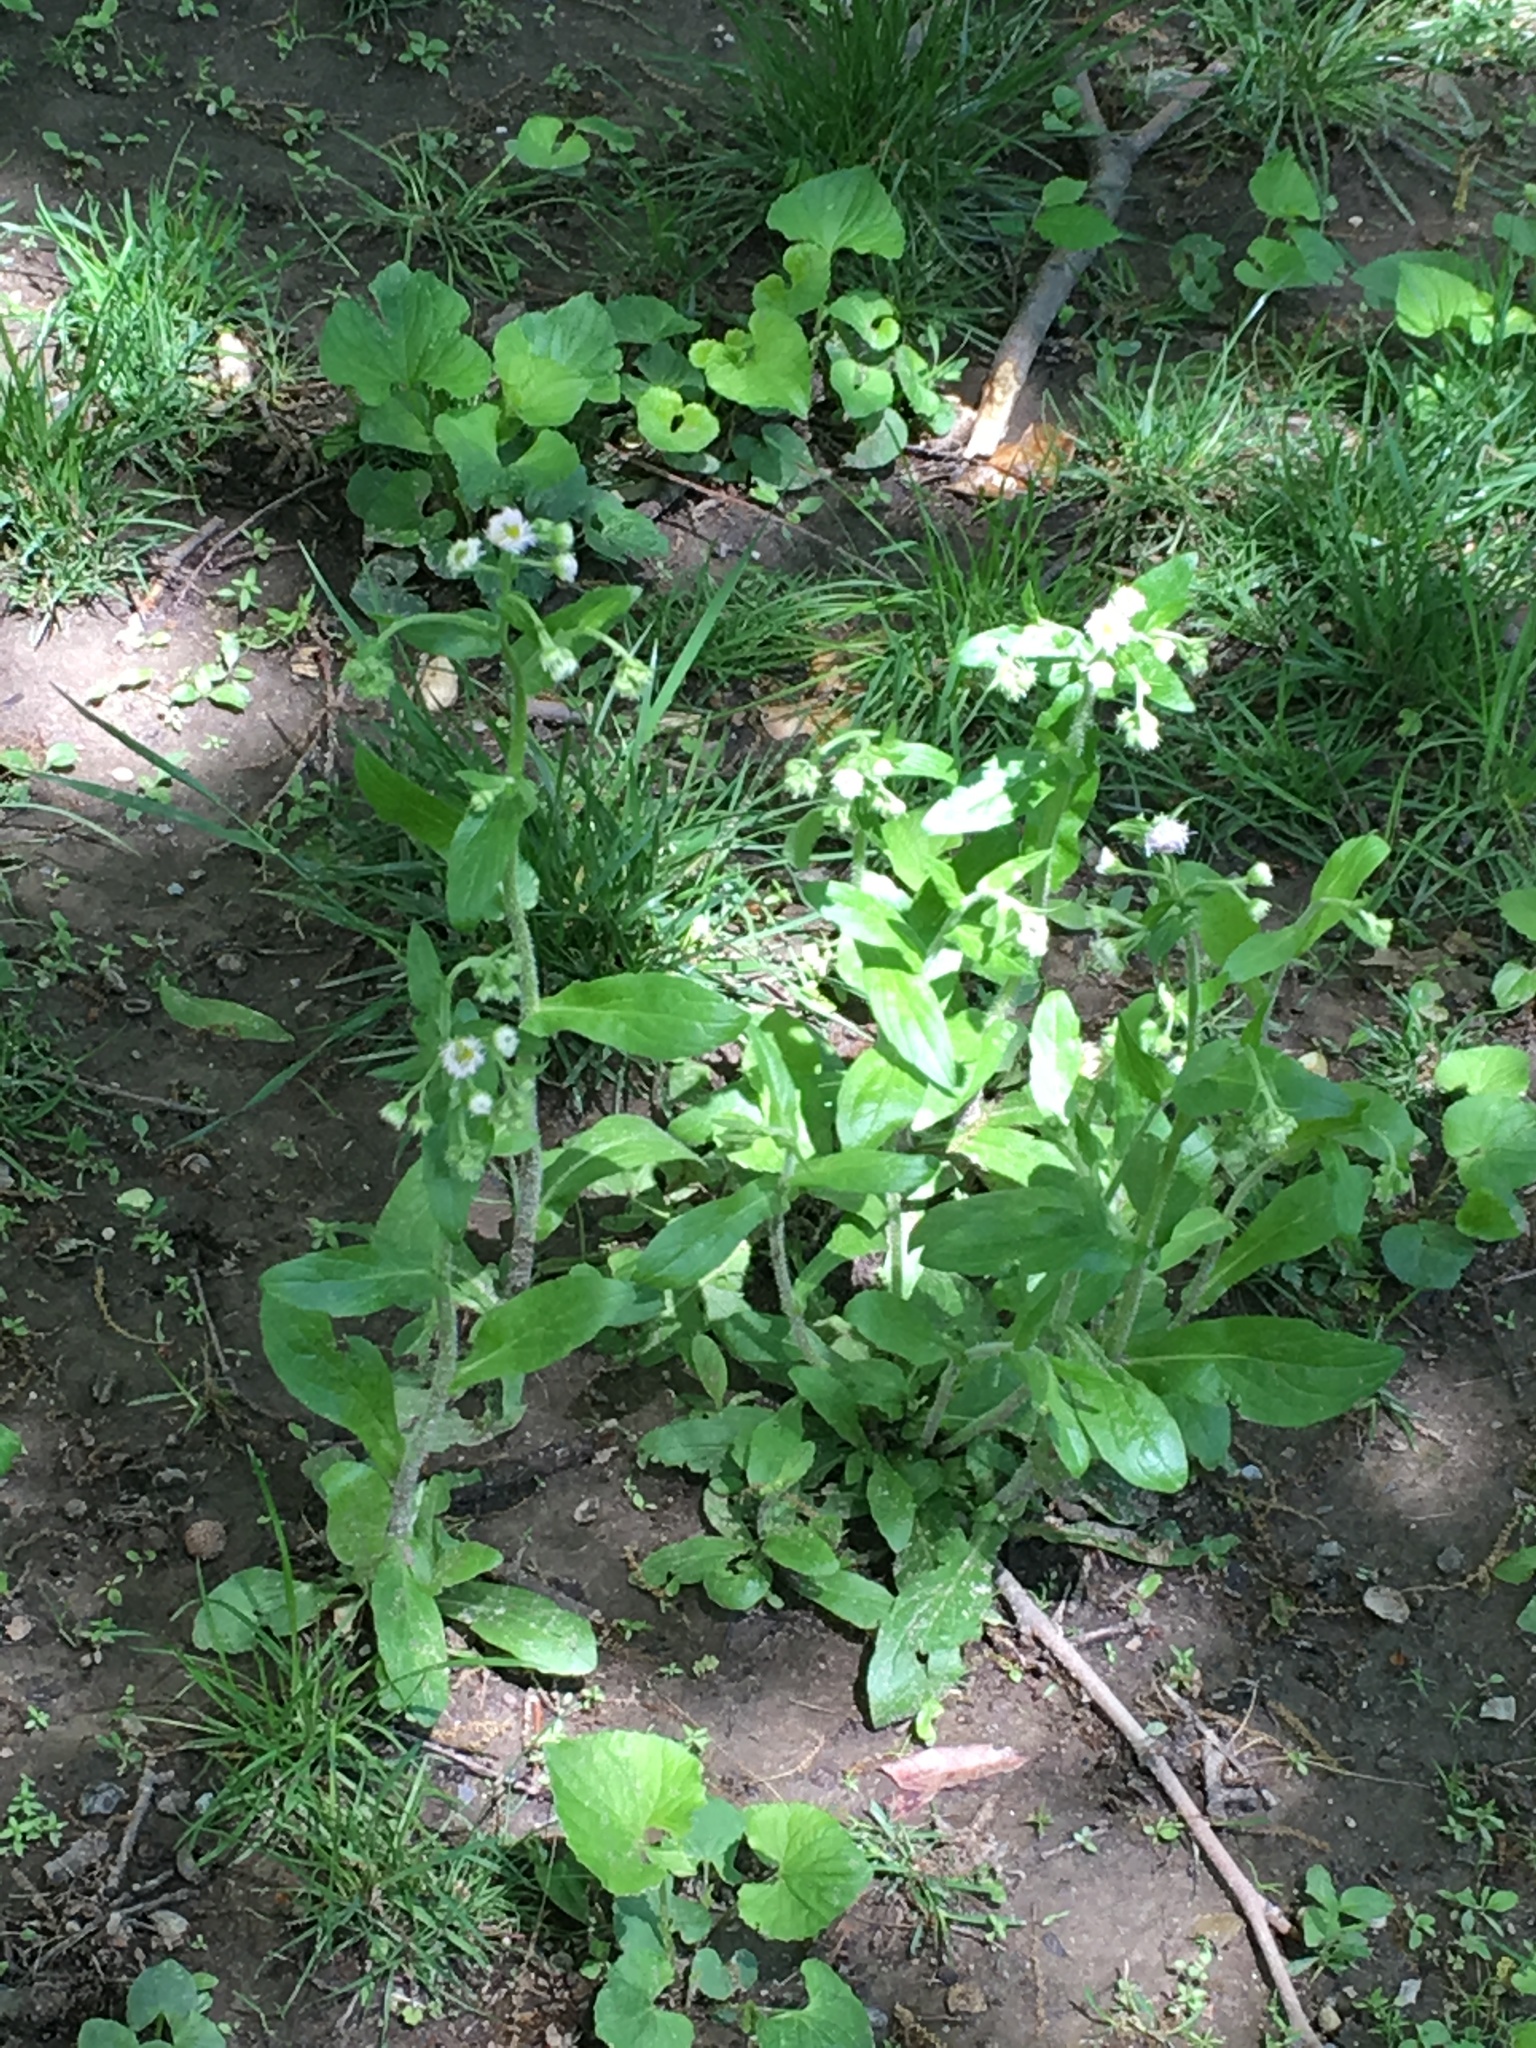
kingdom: Plantae
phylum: Tracheophyta
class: Magnoliopsida
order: Asterales
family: Asteraceae
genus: Erigeron
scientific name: Erigeron philadelphicus
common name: Robin's-plantain
